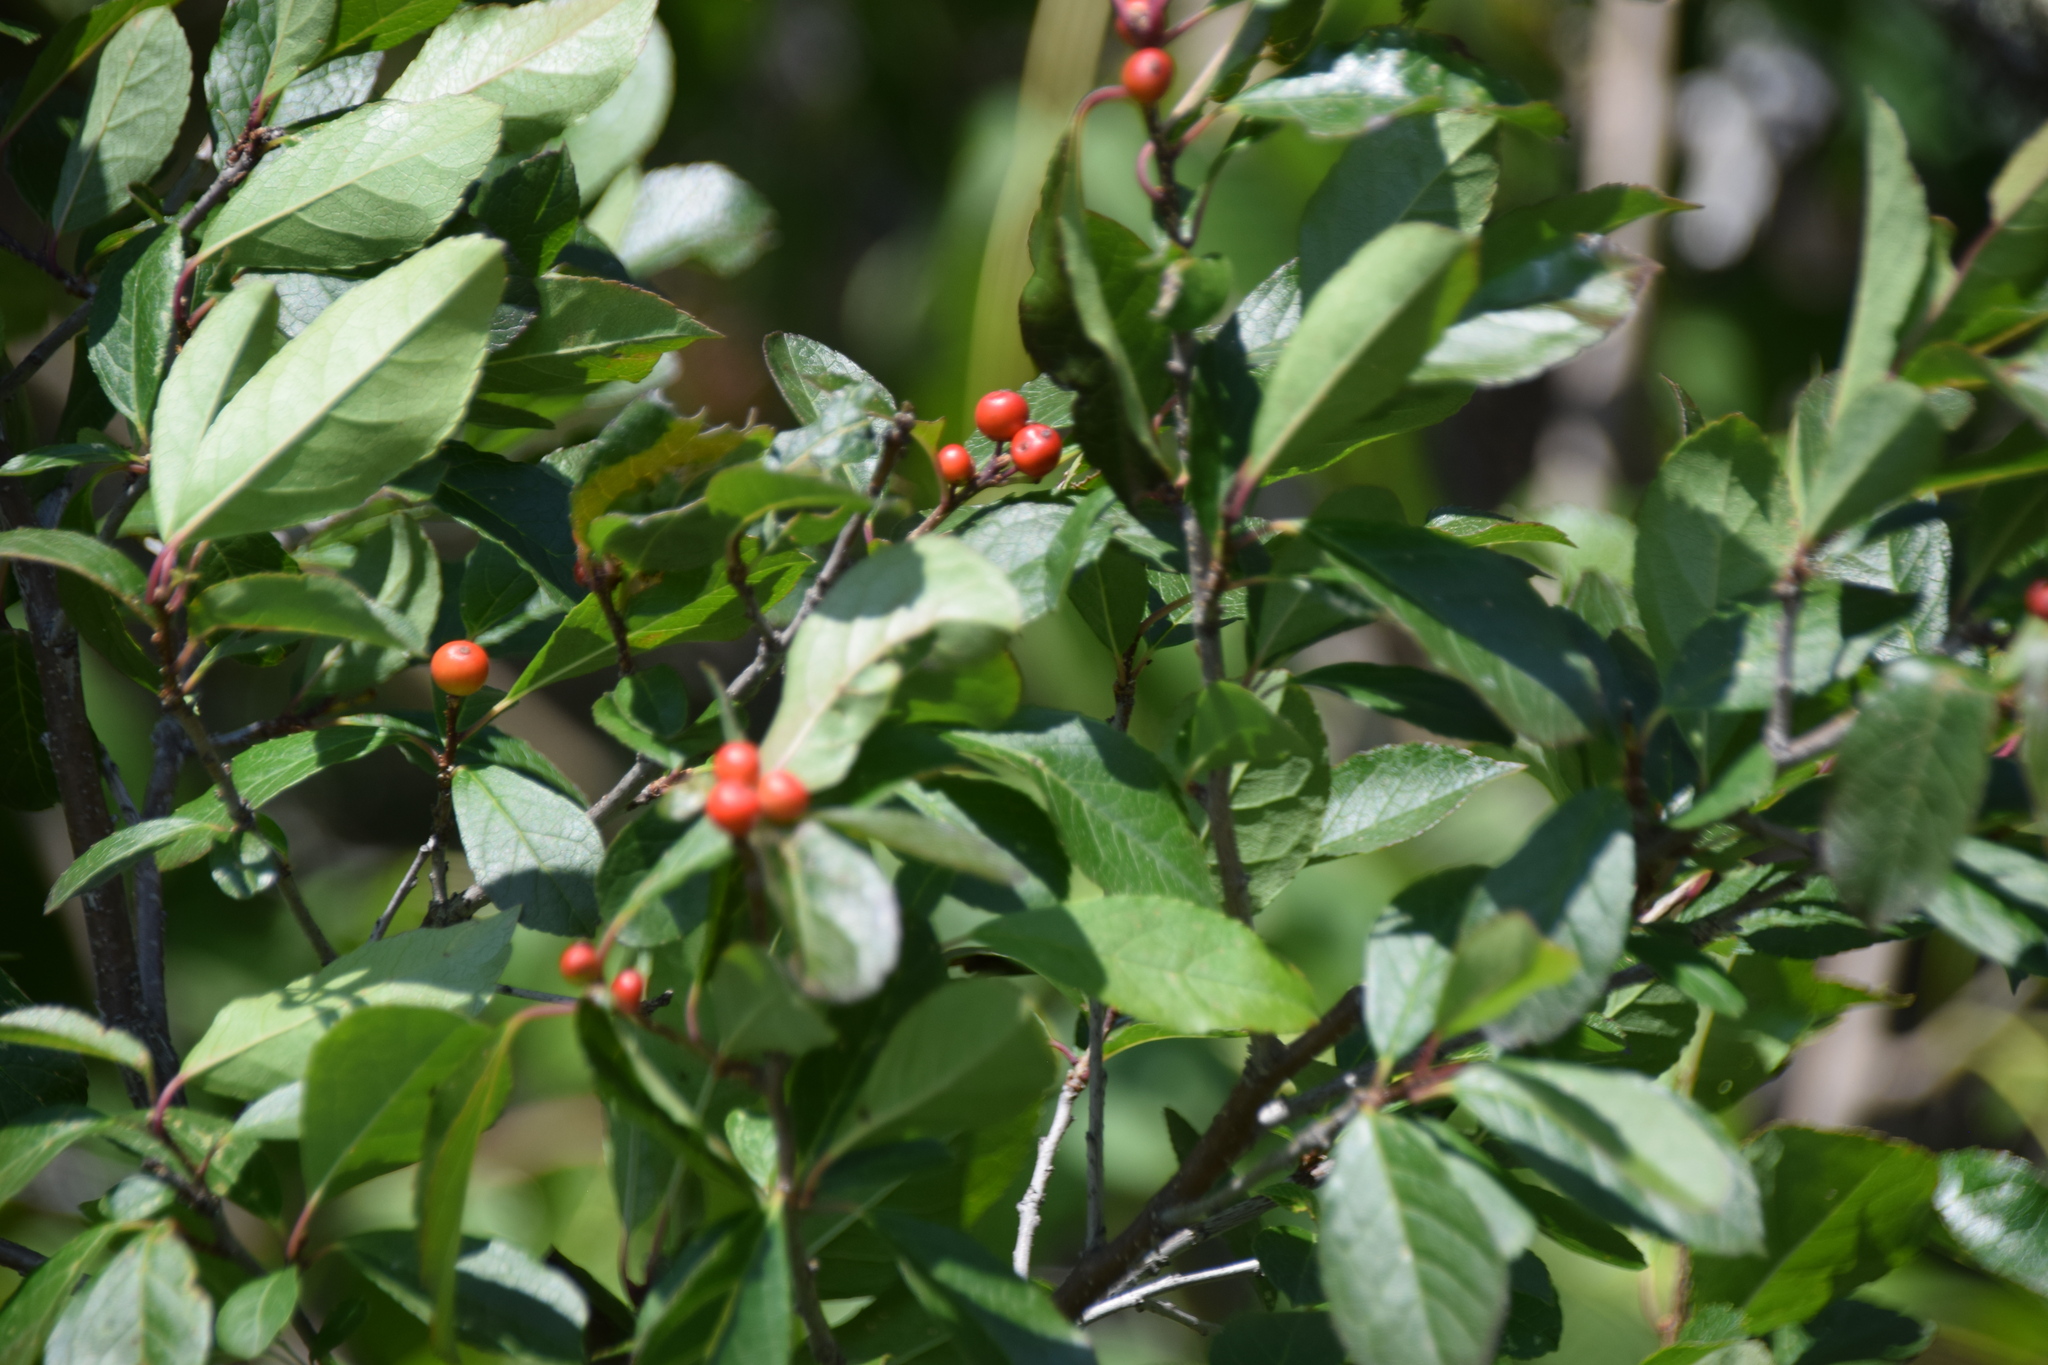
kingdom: Plantae
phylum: Tracheophyta
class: Magnoliopsida
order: Aquifoliales
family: Aquifoliaceae
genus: Ilex
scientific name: Ilex verticillata
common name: Virginia winterberry
